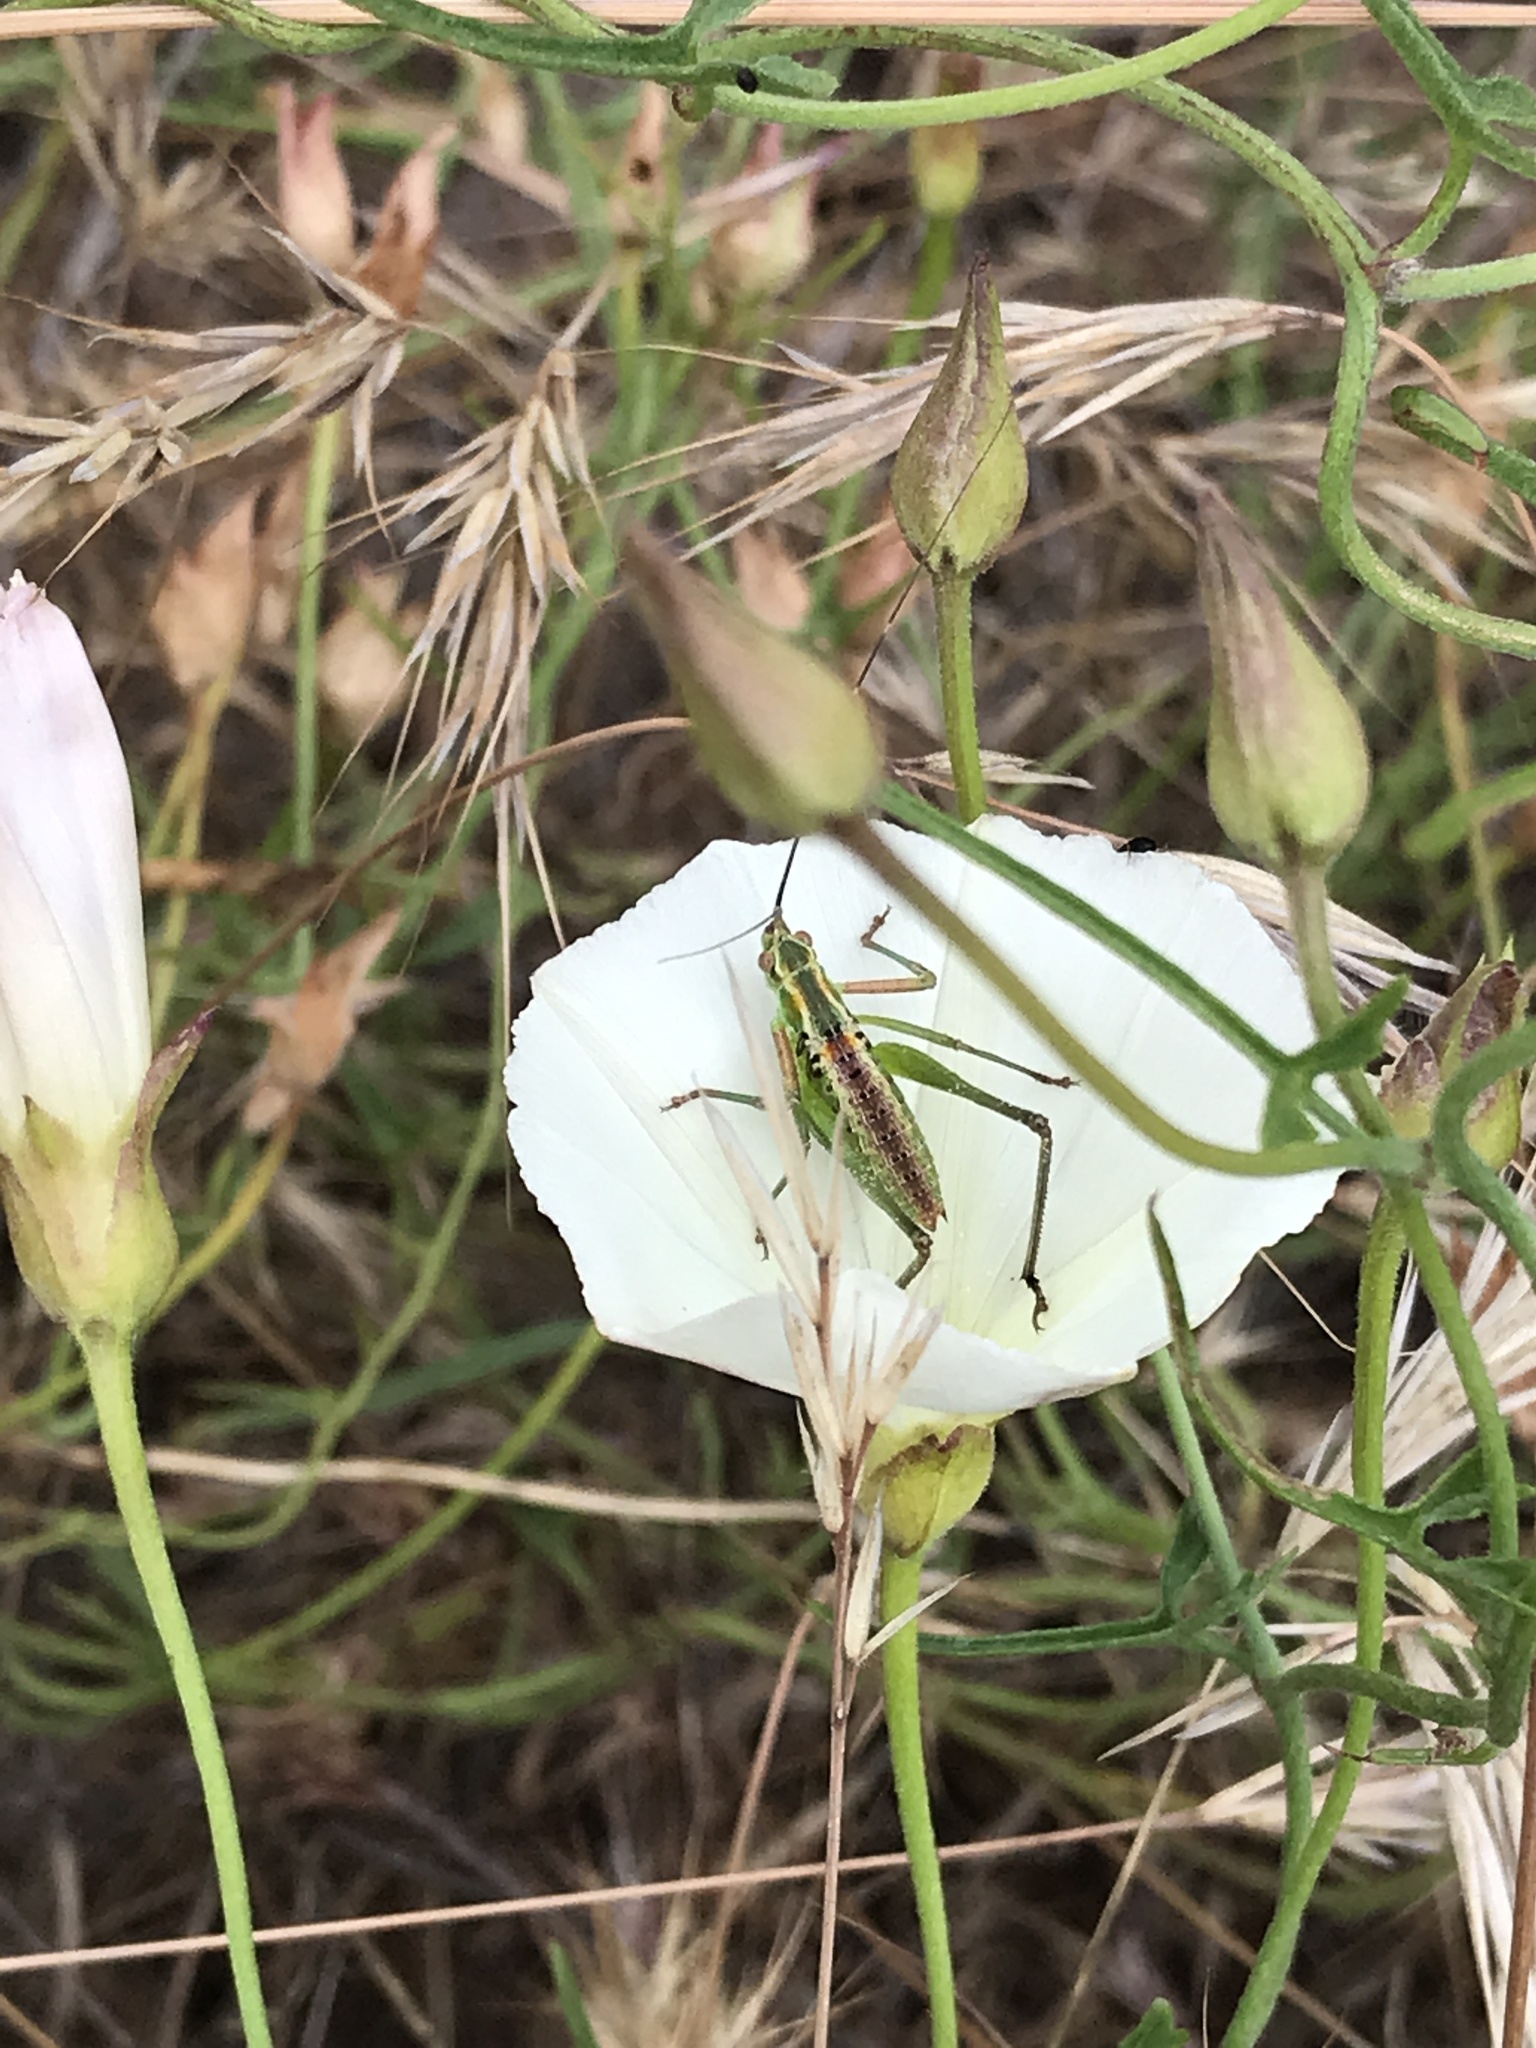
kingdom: Animalia
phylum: Arthropoda
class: Insecta
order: Orthoptera
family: Tettigoniidae
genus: Scudderia
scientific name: Scudderia
